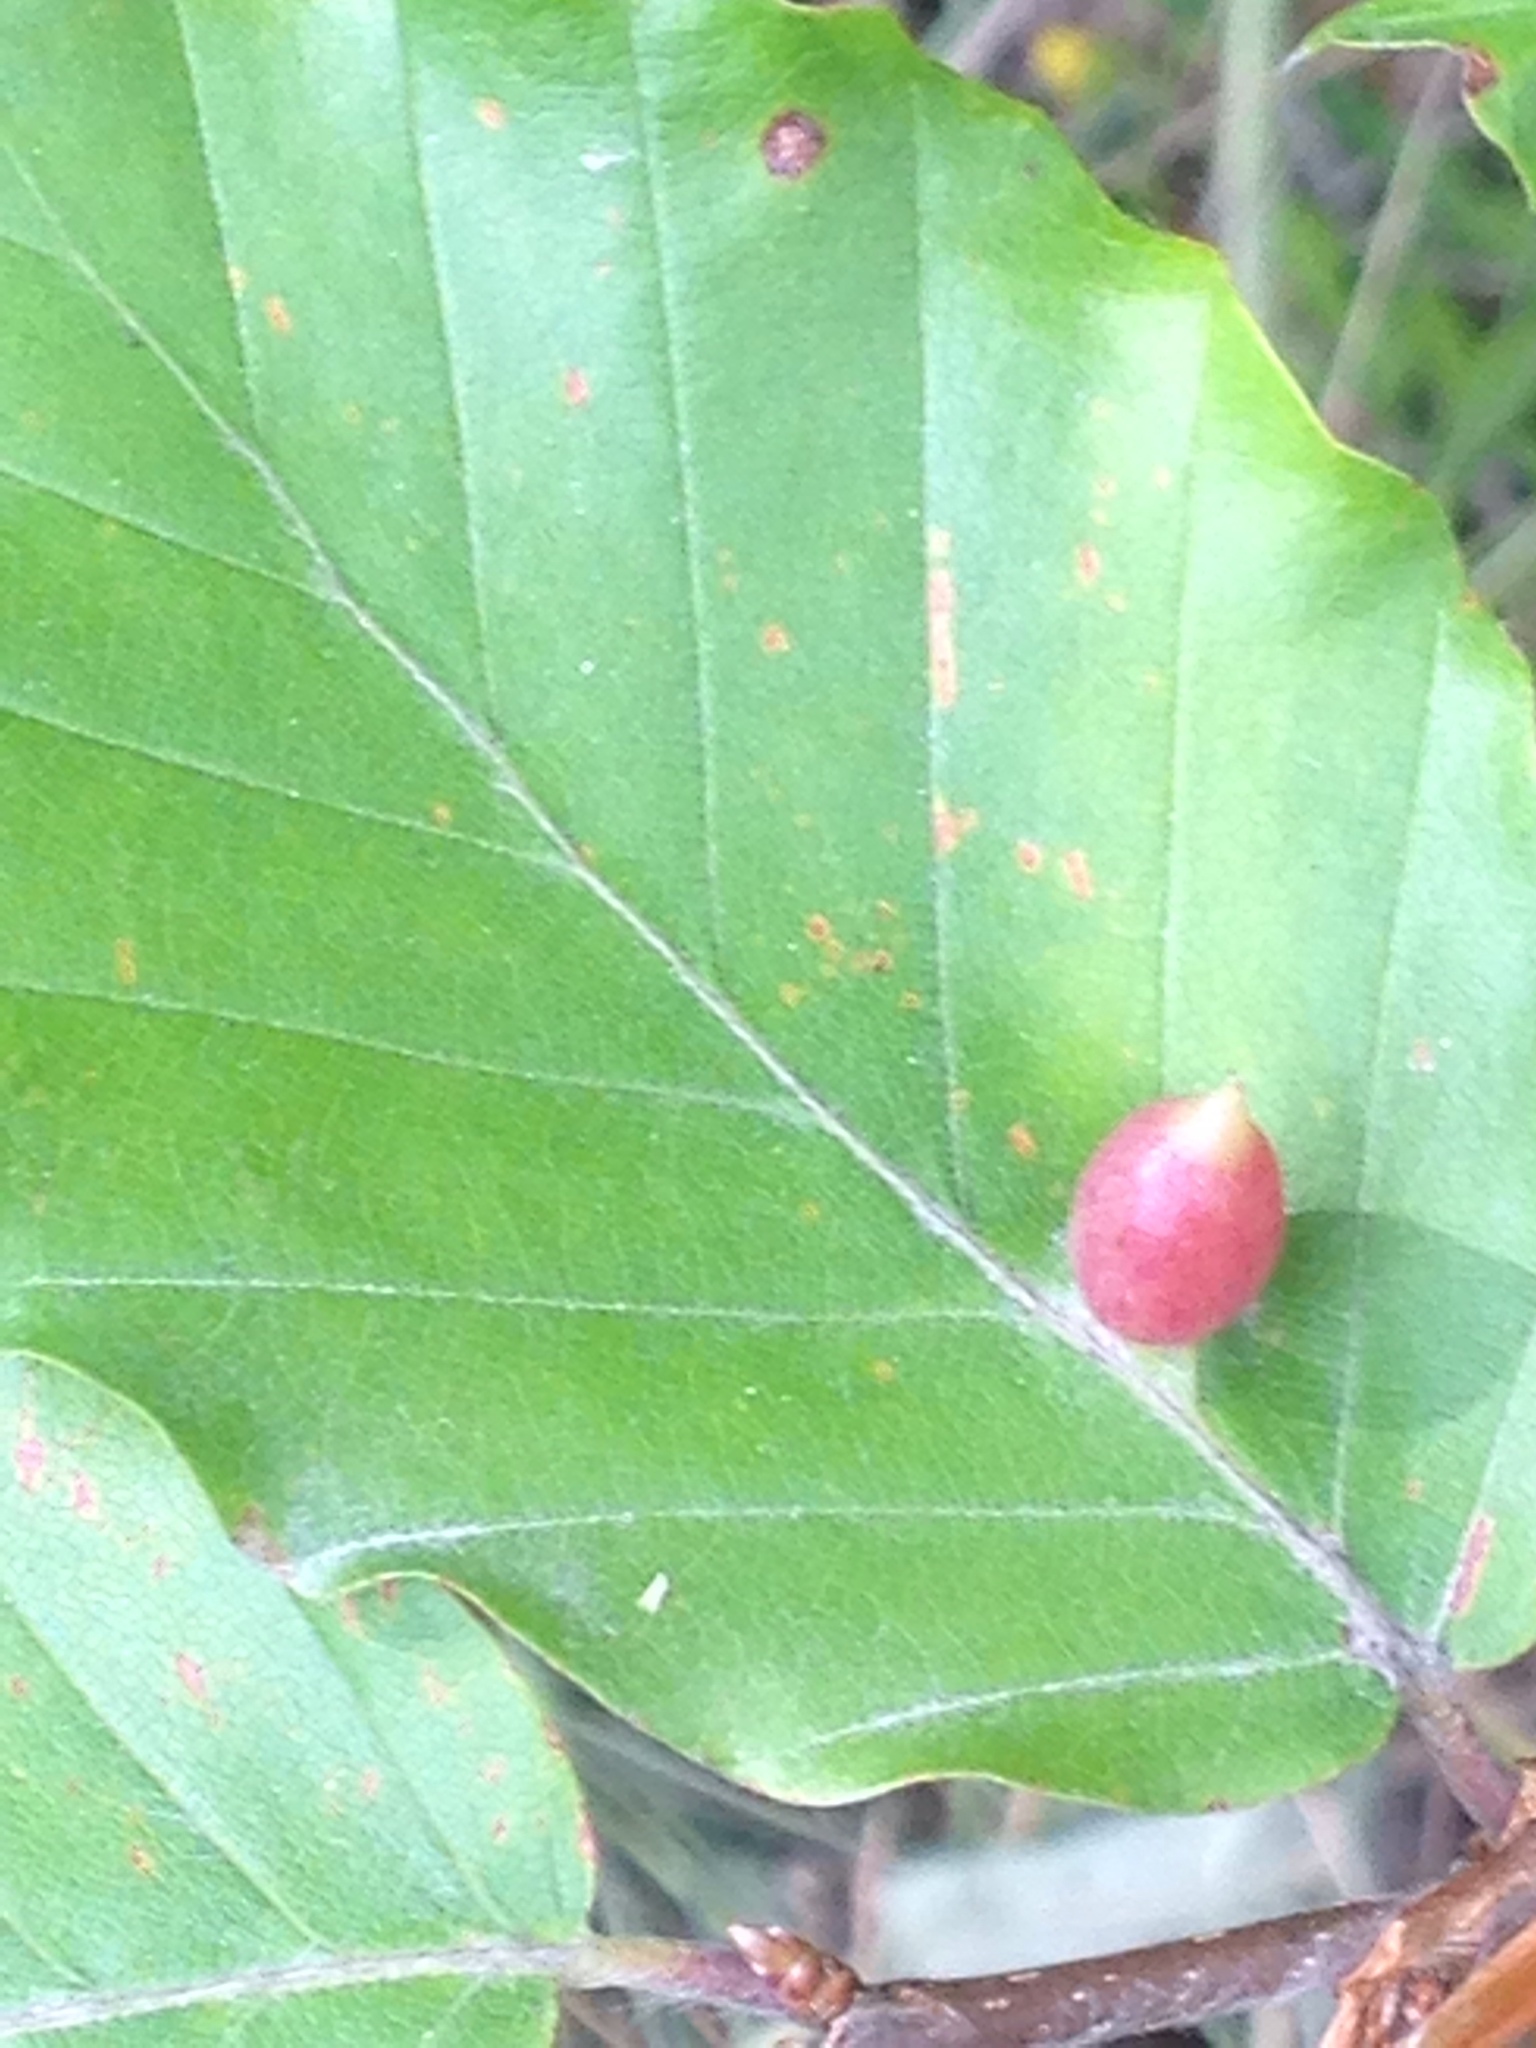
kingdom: Animalia
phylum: Arthropoda
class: Insecta
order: Diptera
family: Cecidomyiidae
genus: Mikiola
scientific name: Mikiola fagi
